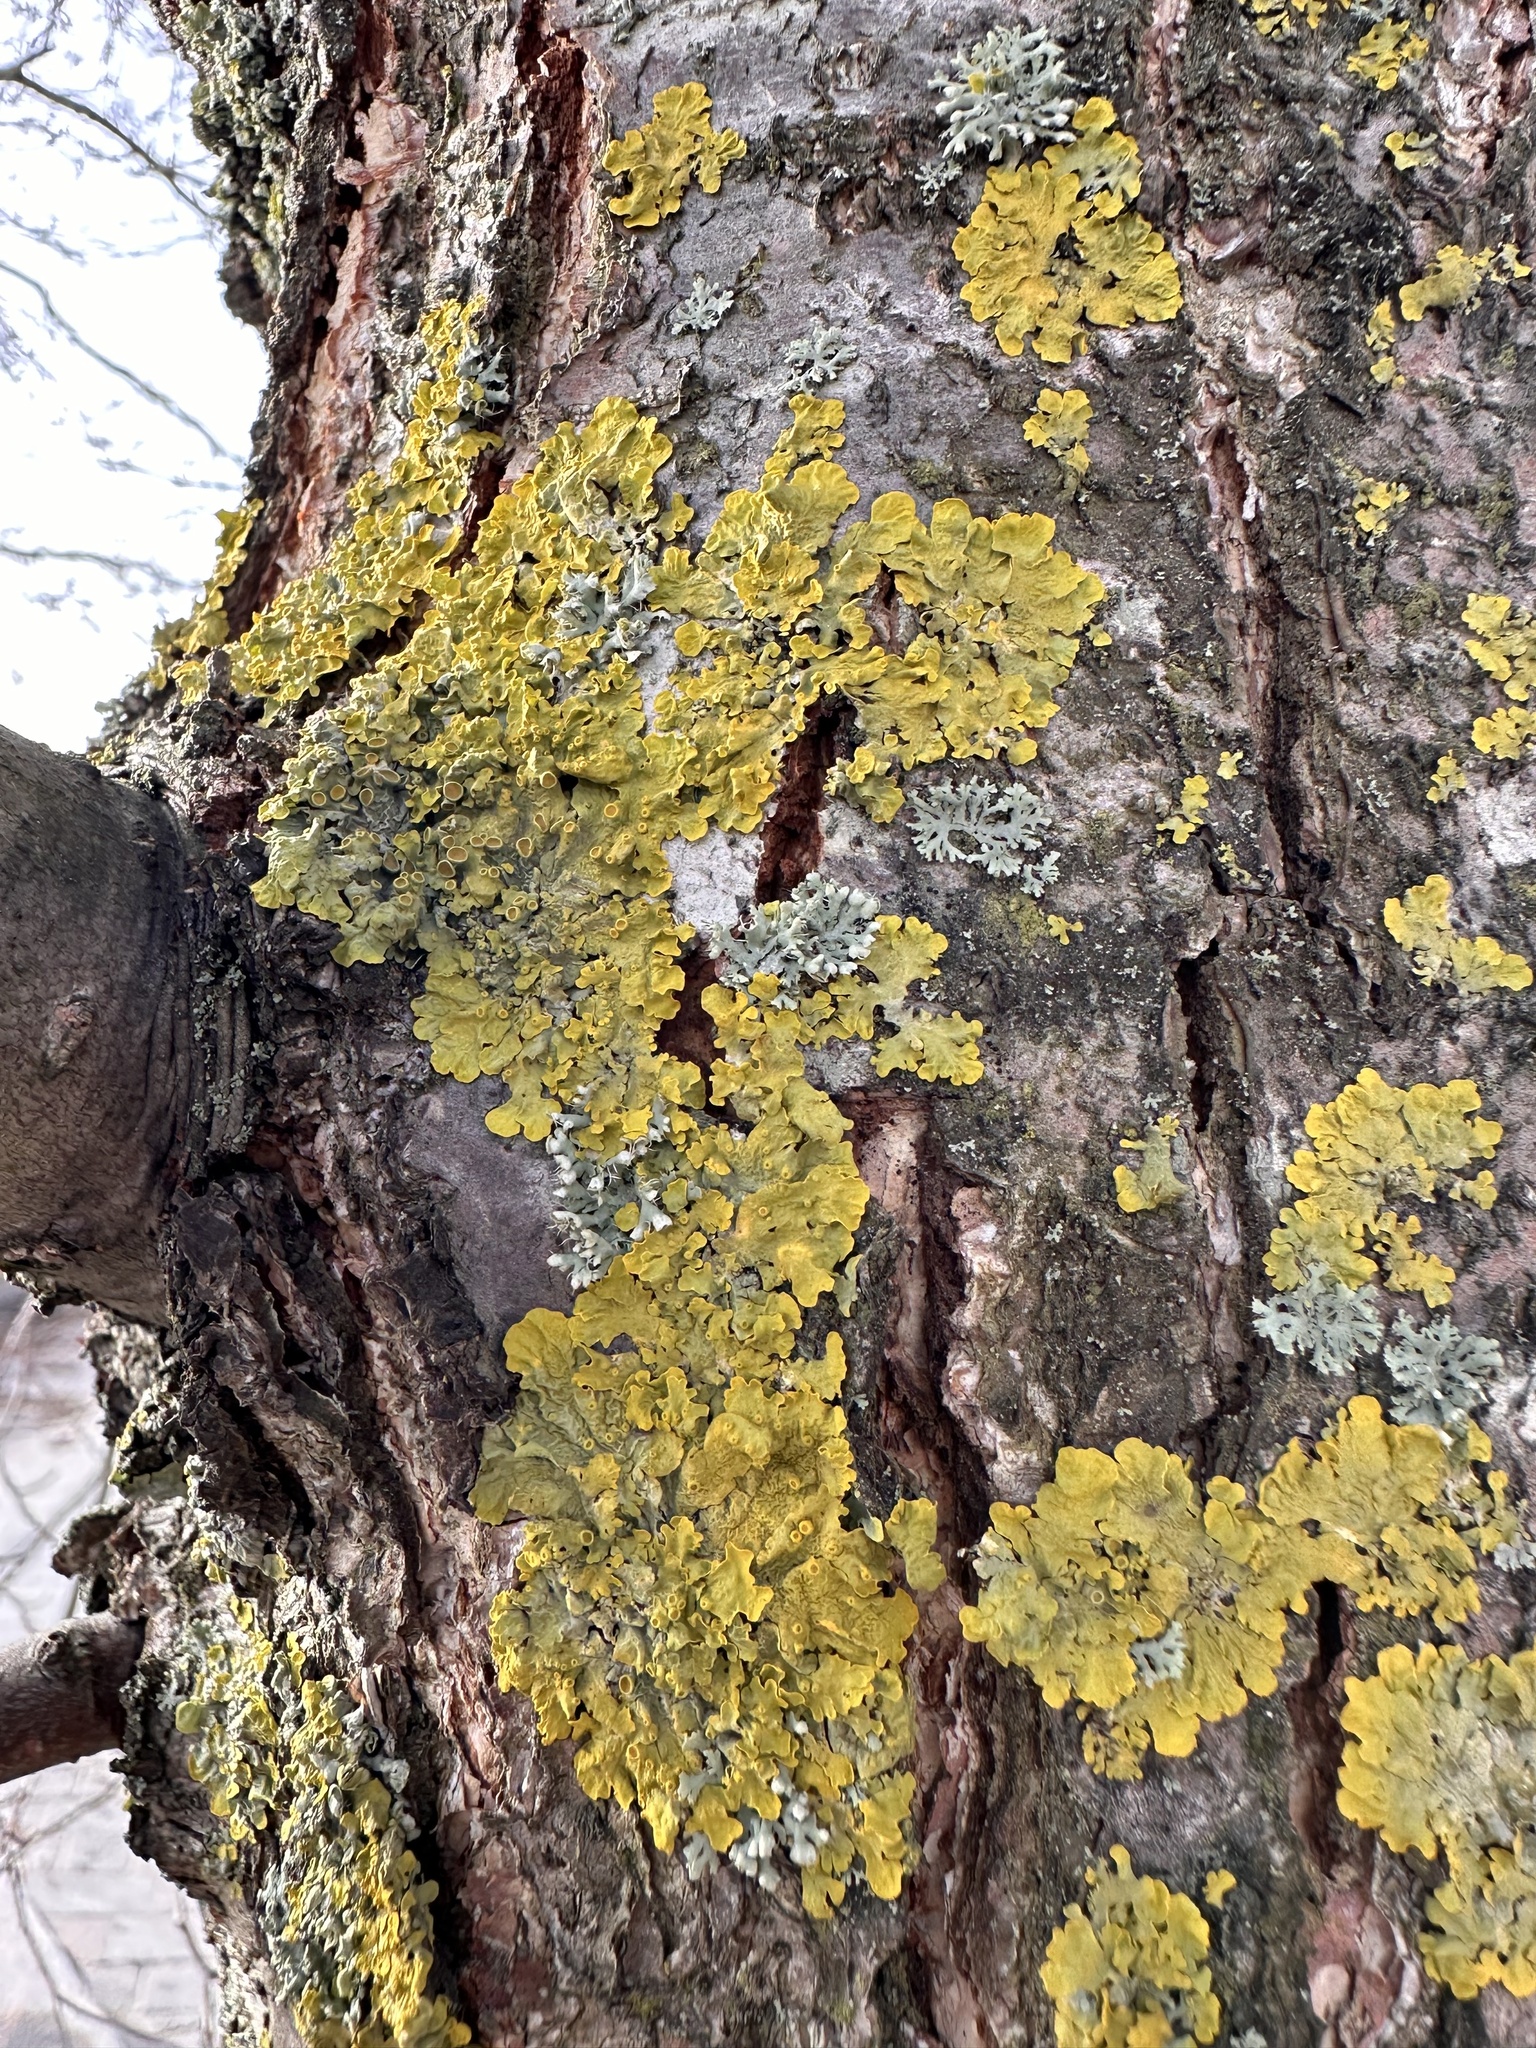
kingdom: Fungi
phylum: Ascomycota
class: Lecanoromycetes
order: Teloschistales
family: Teloschistaceae
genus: Xanthoria
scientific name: Xanthoria parietina
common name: Common orange lichen
